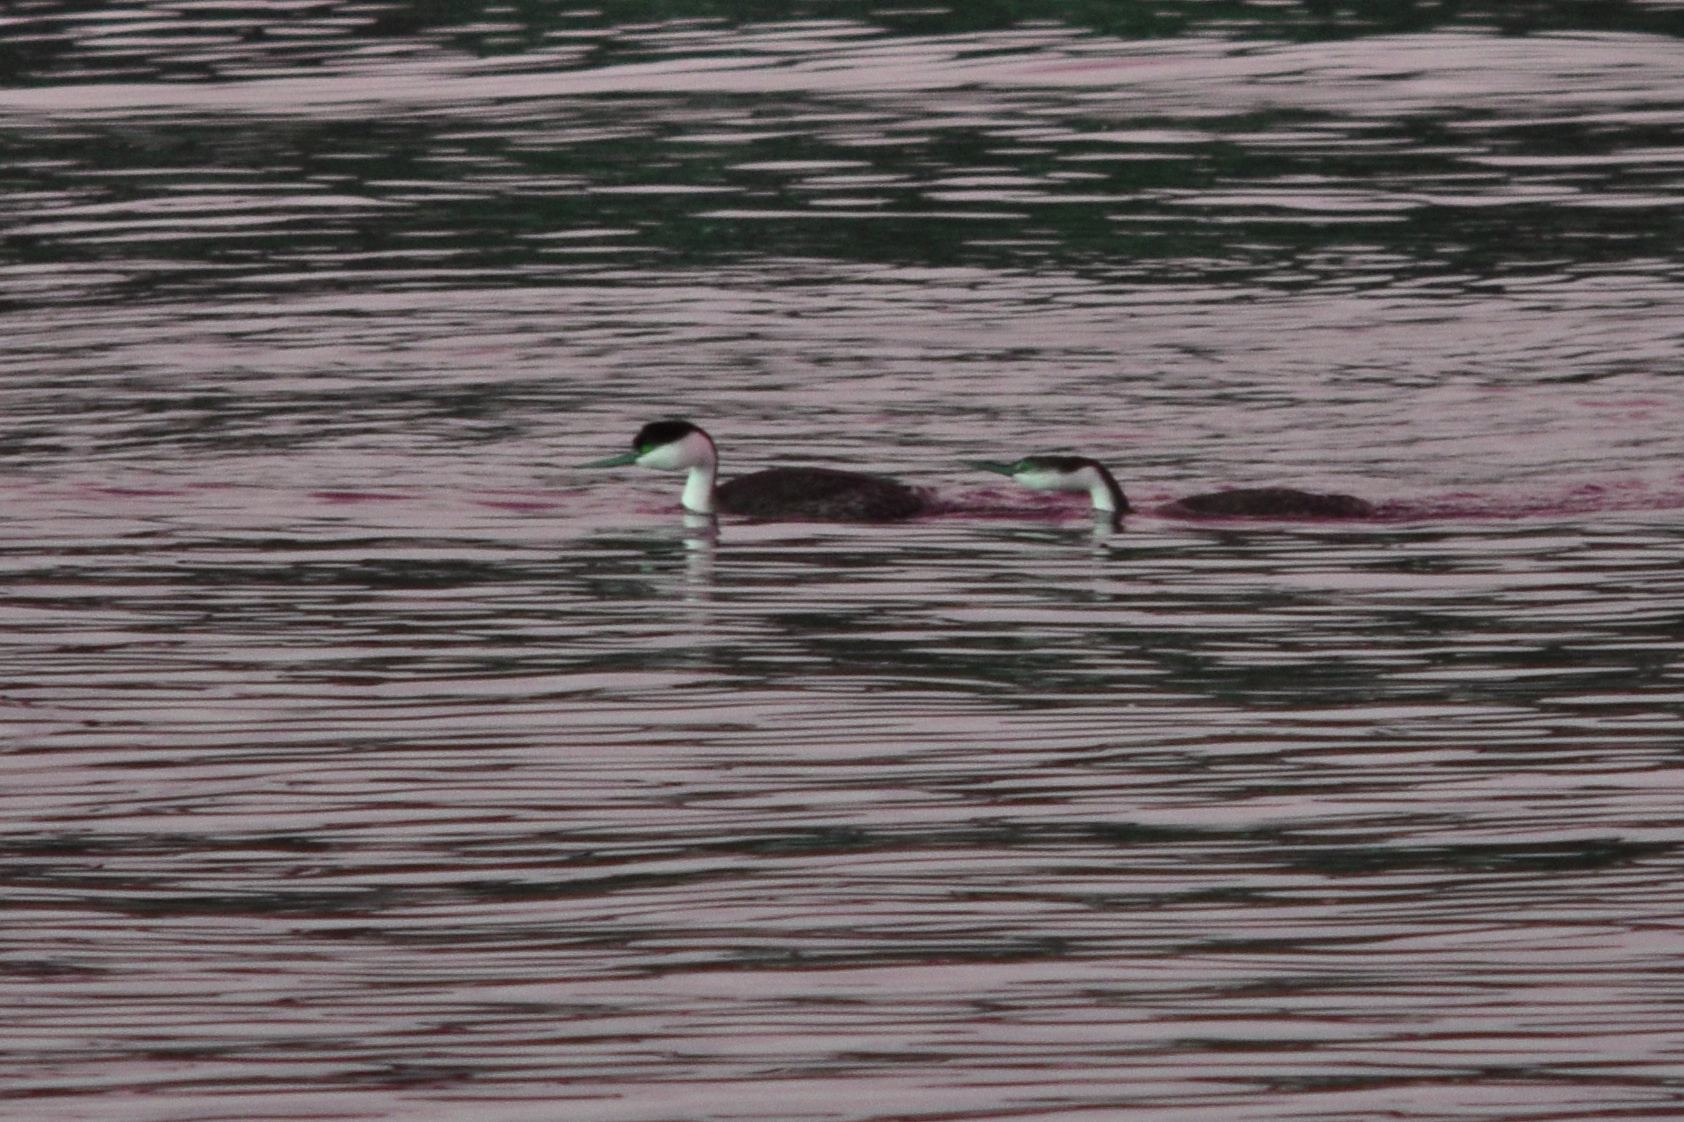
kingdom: Animalia
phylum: Chordata
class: Aves
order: Podicipediformes
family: Podicipedidae
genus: Aechmophorus
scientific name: Aechmophorus occidentalis
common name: Western grebe
